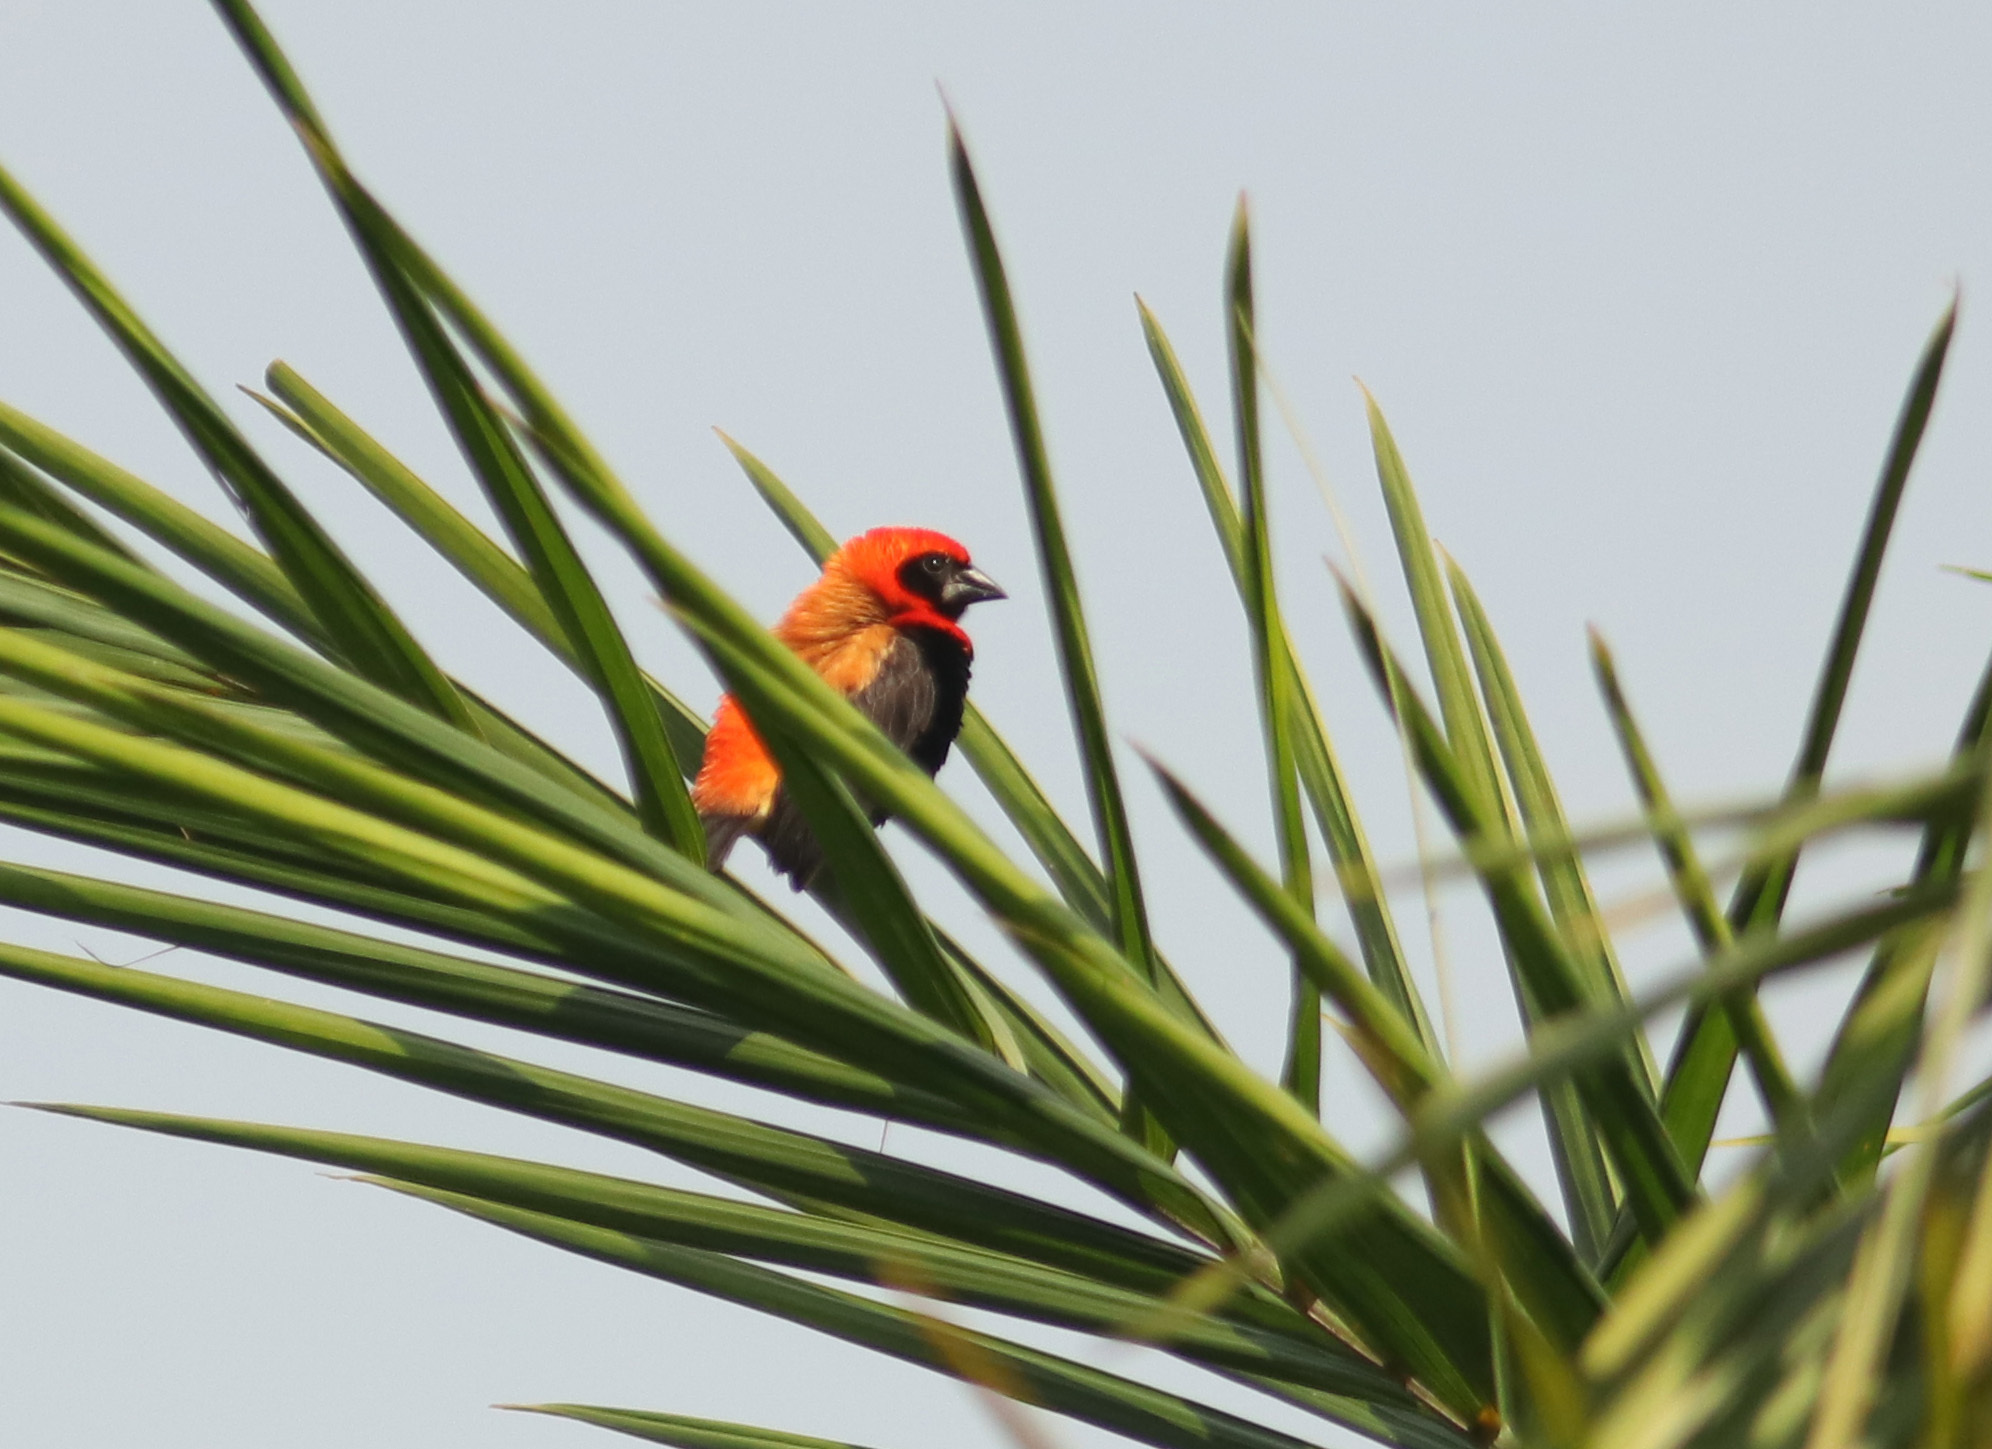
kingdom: Animalia
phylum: Chordata
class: Aves
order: Passeriformes
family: Ploceidae
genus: Euplectes
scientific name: Euplectes hordeaceus
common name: Black-winged red bishop
